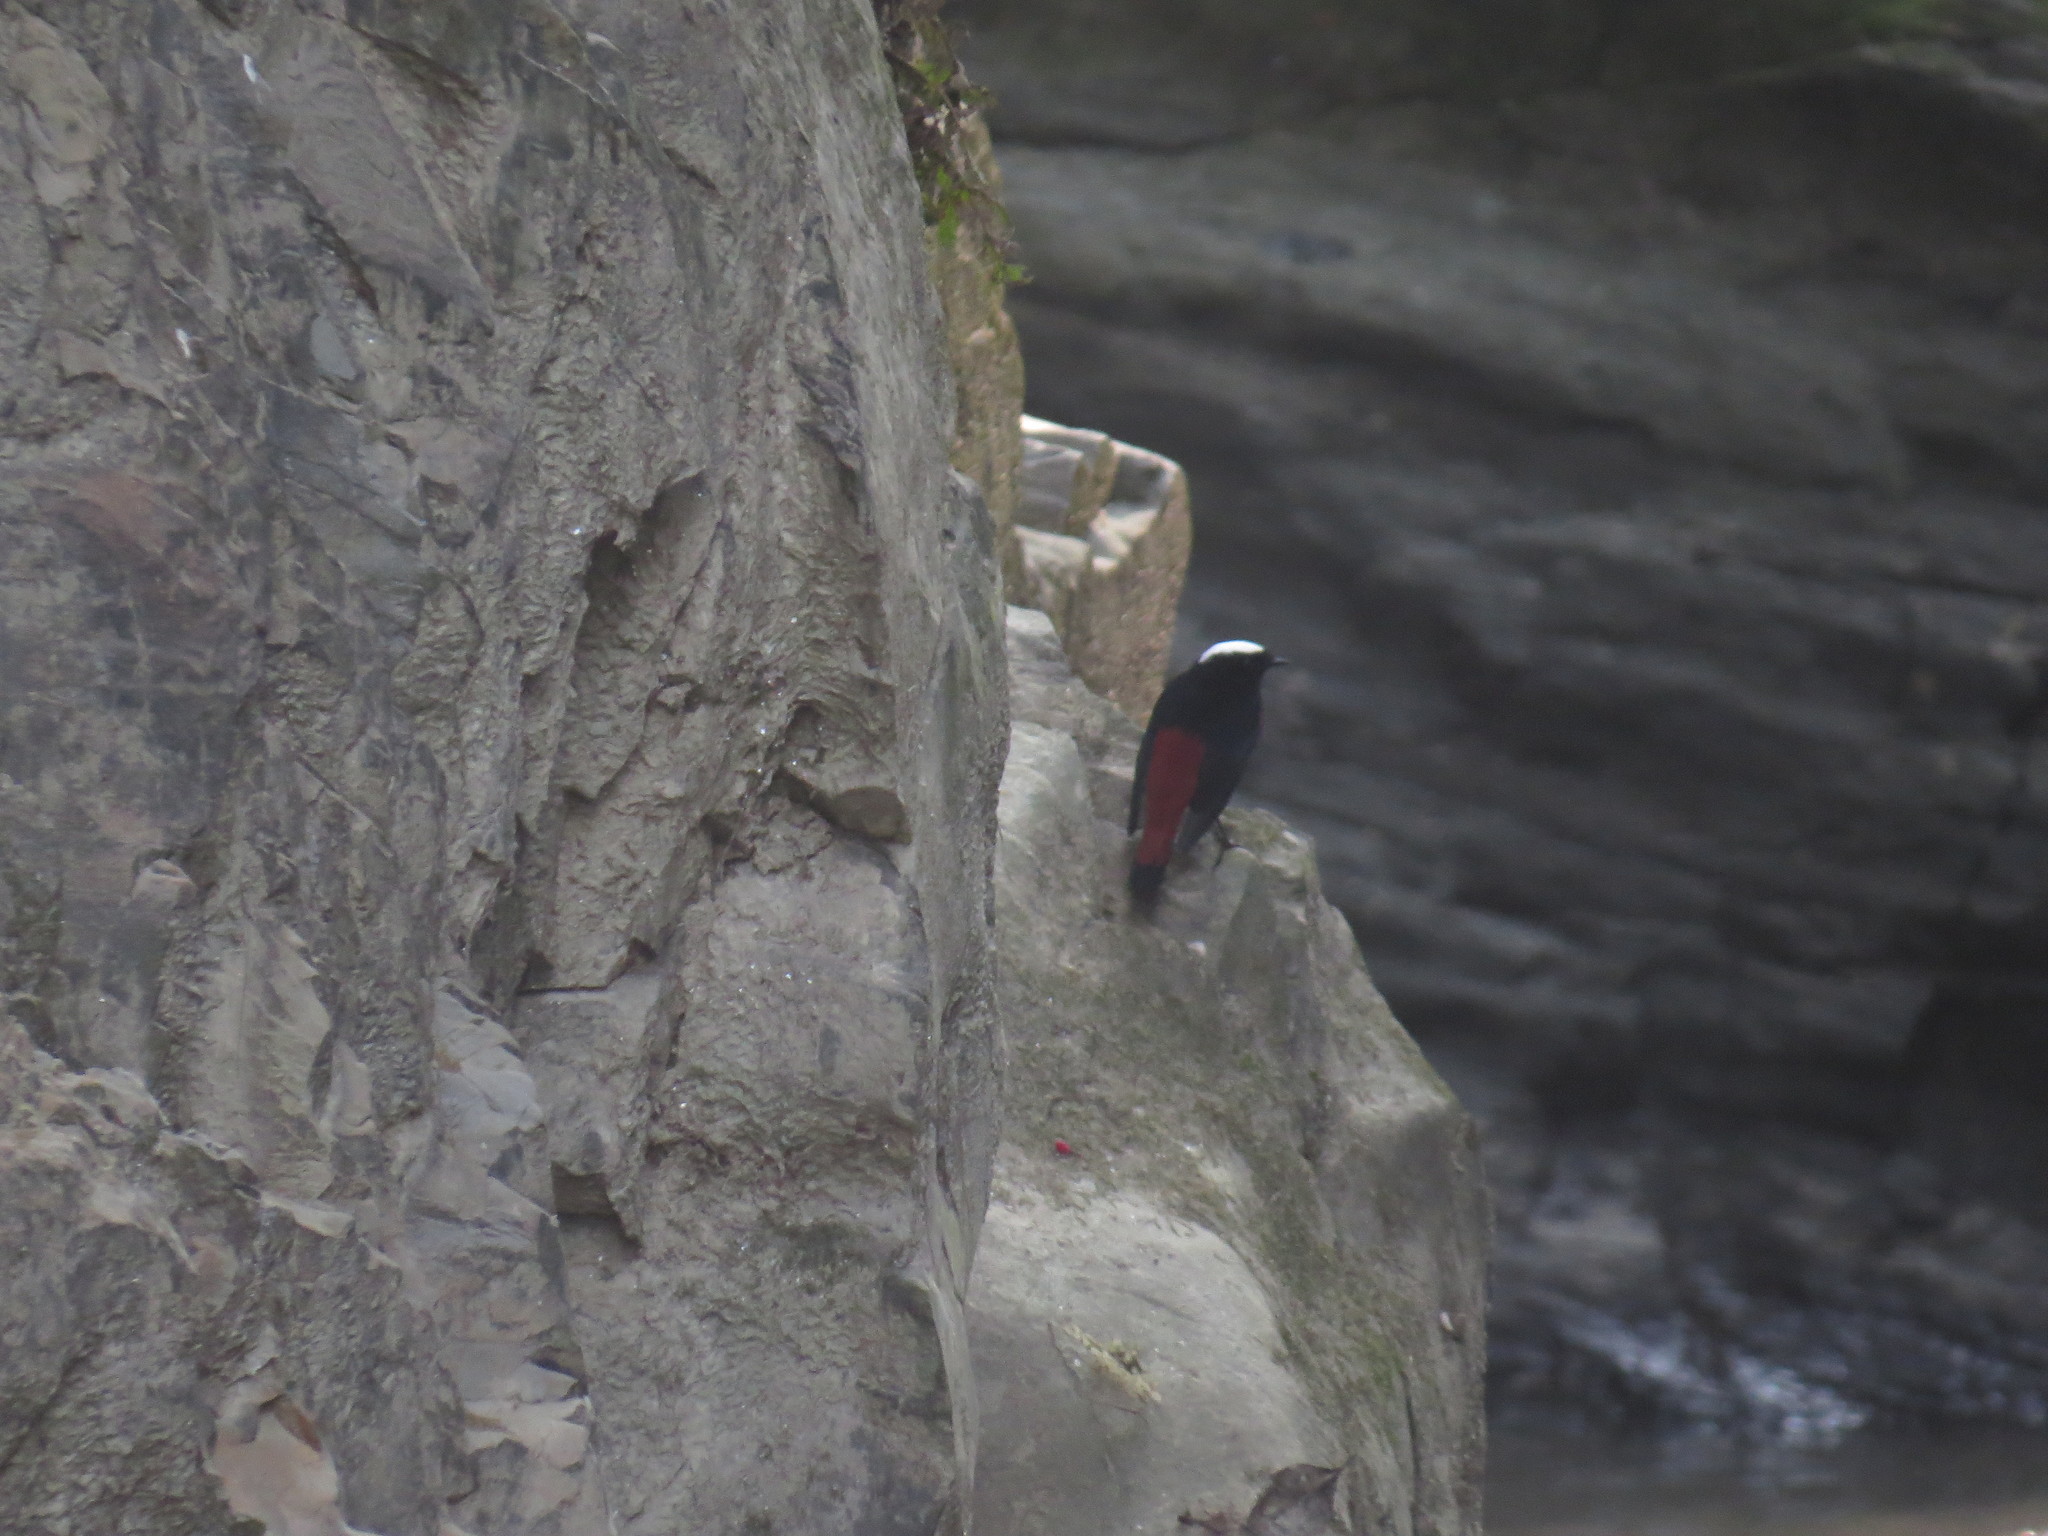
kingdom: Animalia
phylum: Chordata
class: Aves
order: Passeriformes
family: Muscicapidae
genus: Chaimarrornis
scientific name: Chaimarrornis leucocephalus
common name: White-capped redstart
